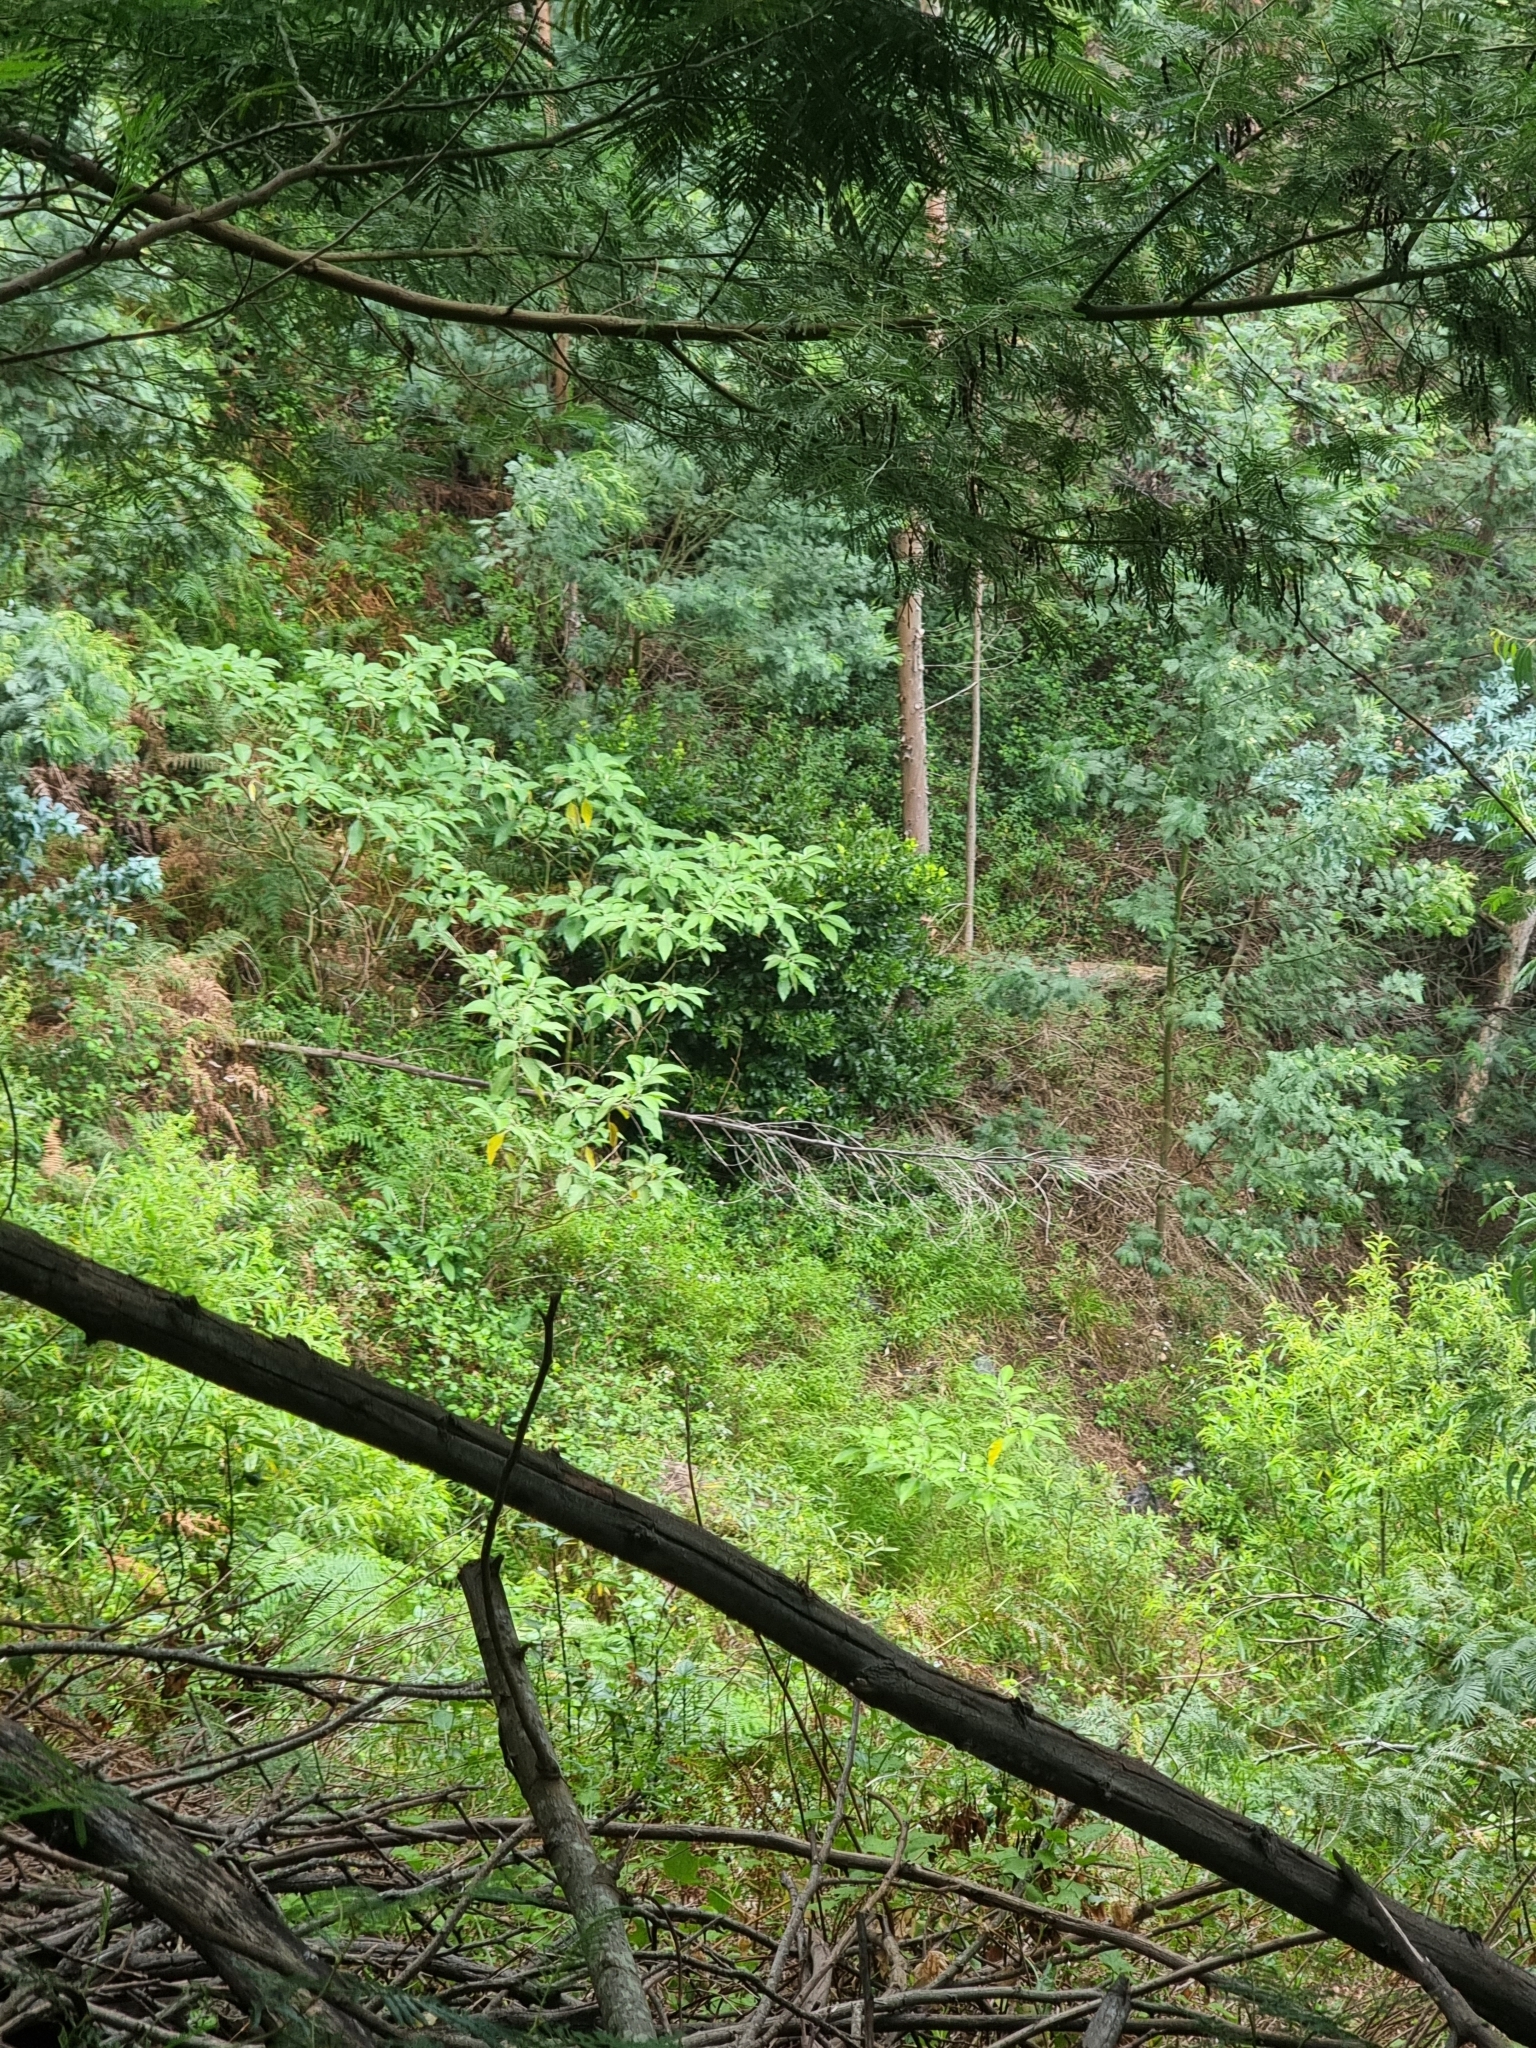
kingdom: Plantae
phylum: Tracheophyta
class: Magnoliopsida
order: Solanales
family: Solanaceae
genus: Solanum
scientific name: Solanum mauritianum
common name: Earleaf nightshade
